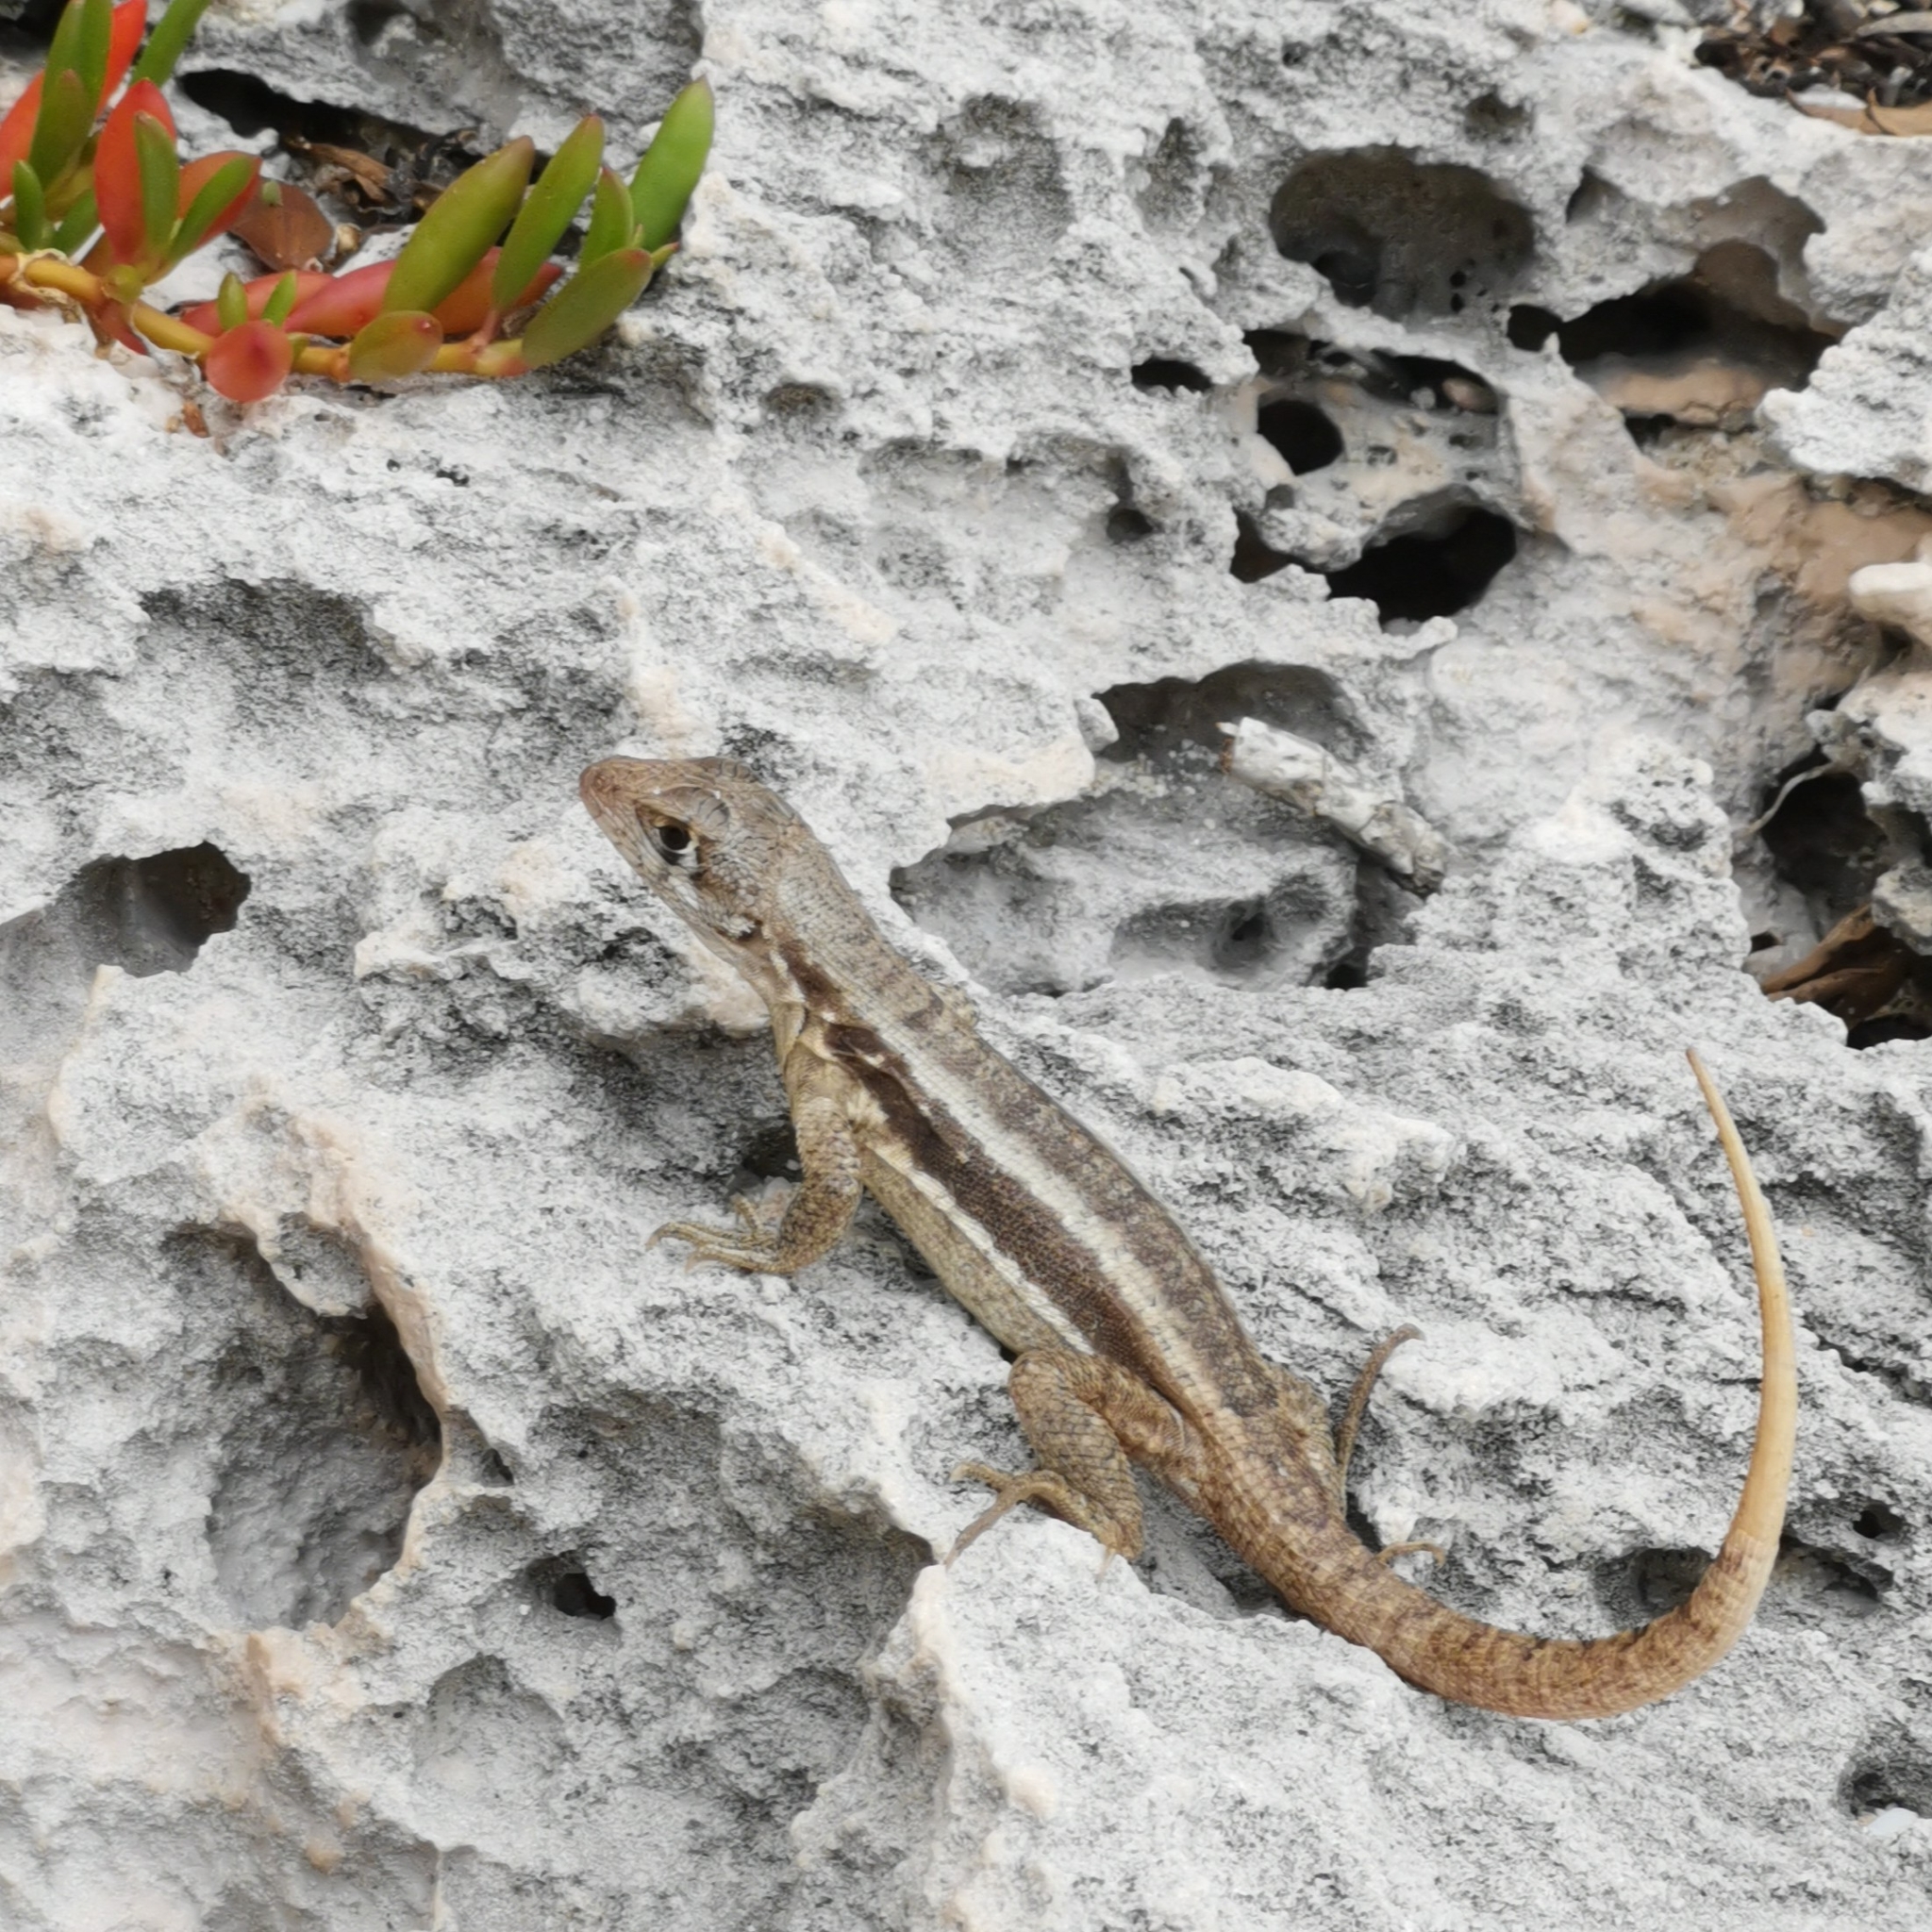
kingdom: Animalia
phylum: Chordata
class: Squamata
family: Leiocephalidae
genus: Leiocephalus
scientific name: Leiocephalus psammodromus
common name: Bastion cay curlytail lizard
